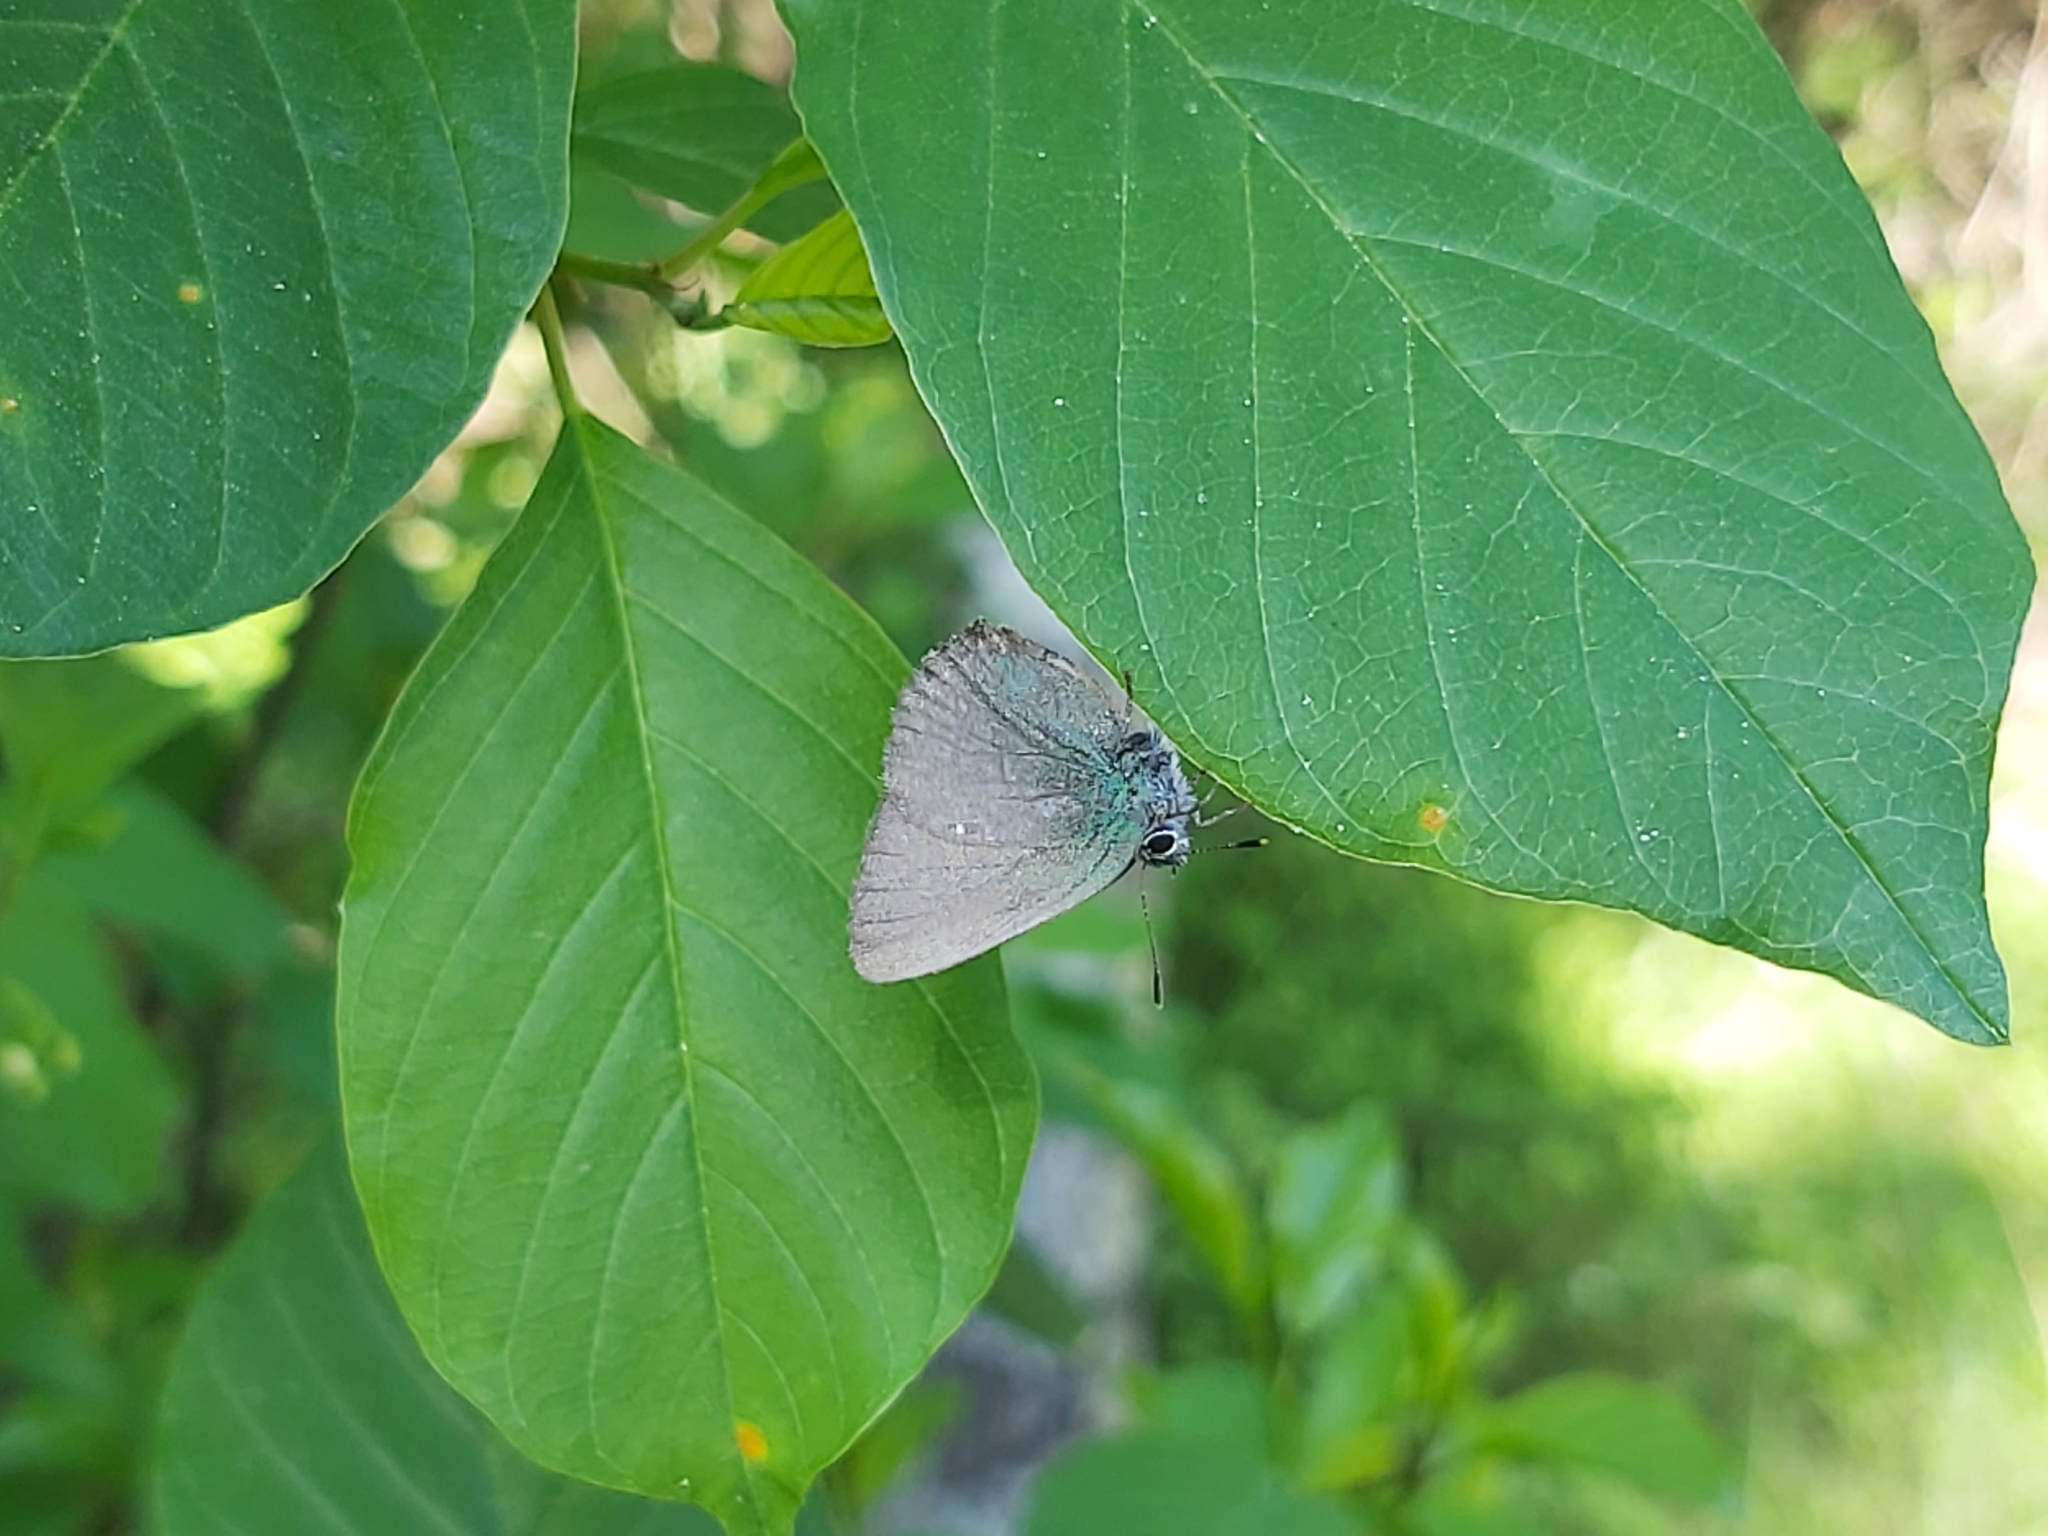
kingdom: Animalia
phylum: Arthropoda
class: Insecta
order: Lepidoptera
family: Lycaenidae
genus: Callophrys
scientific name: Callophrys rubi
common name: Green hairstreak
